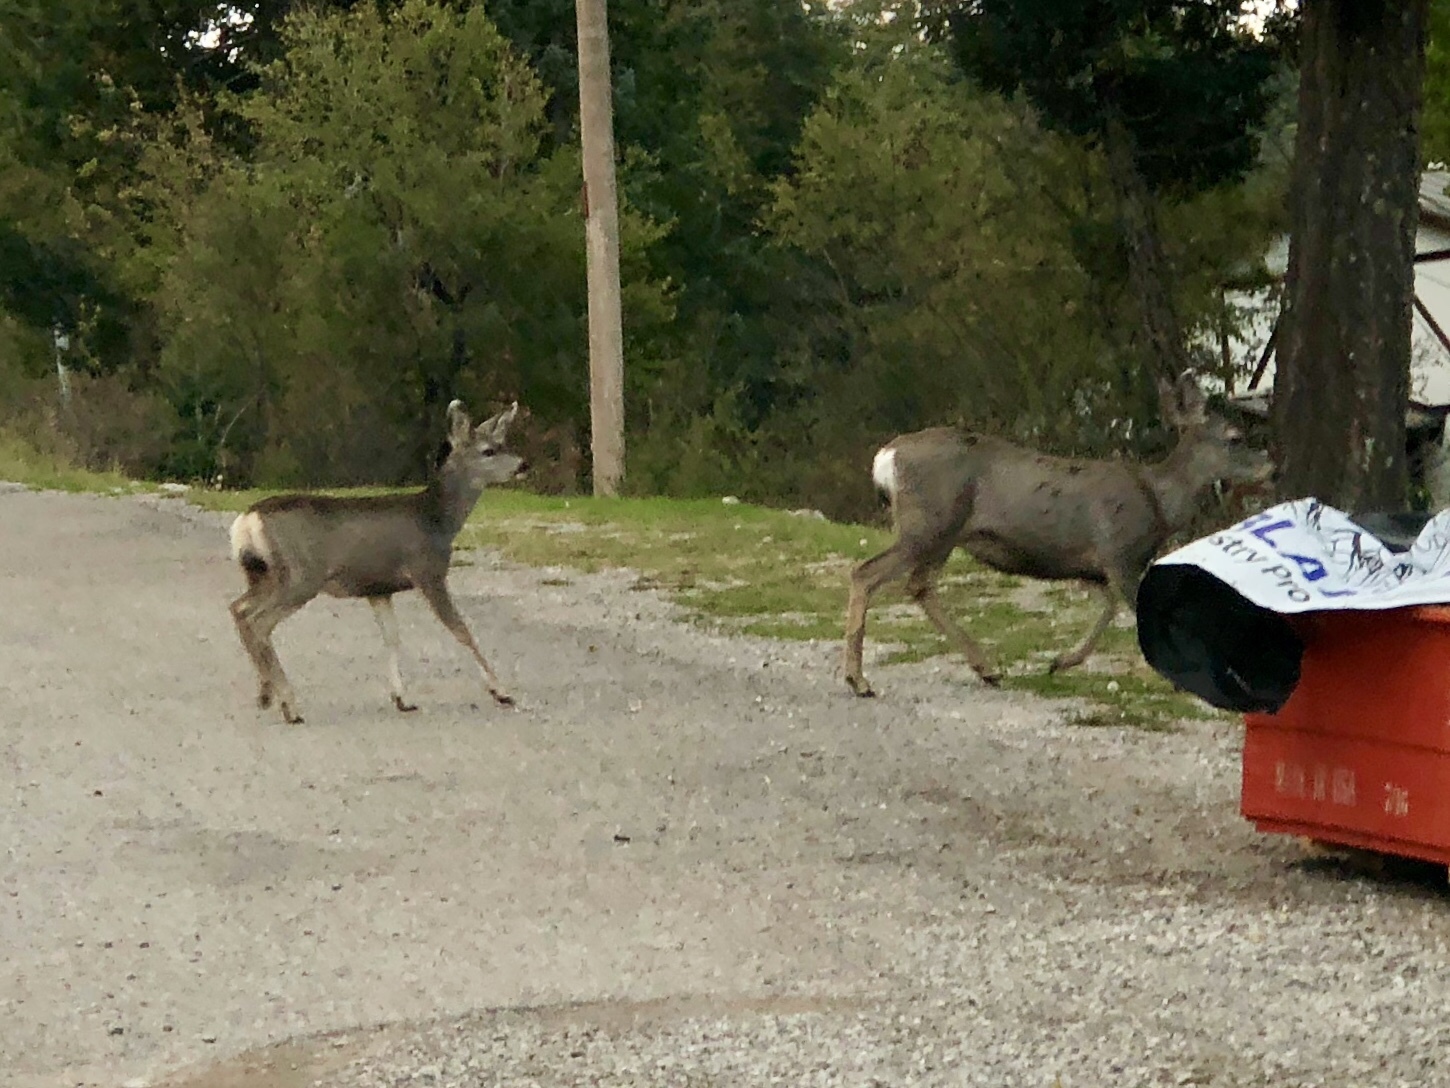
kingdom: Animalia
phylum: Chordata
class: Mammalia
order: Artiodactyla
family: Cervidae
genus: Odocoileus
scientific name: Odocoileus hemionus
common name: Mule deer
